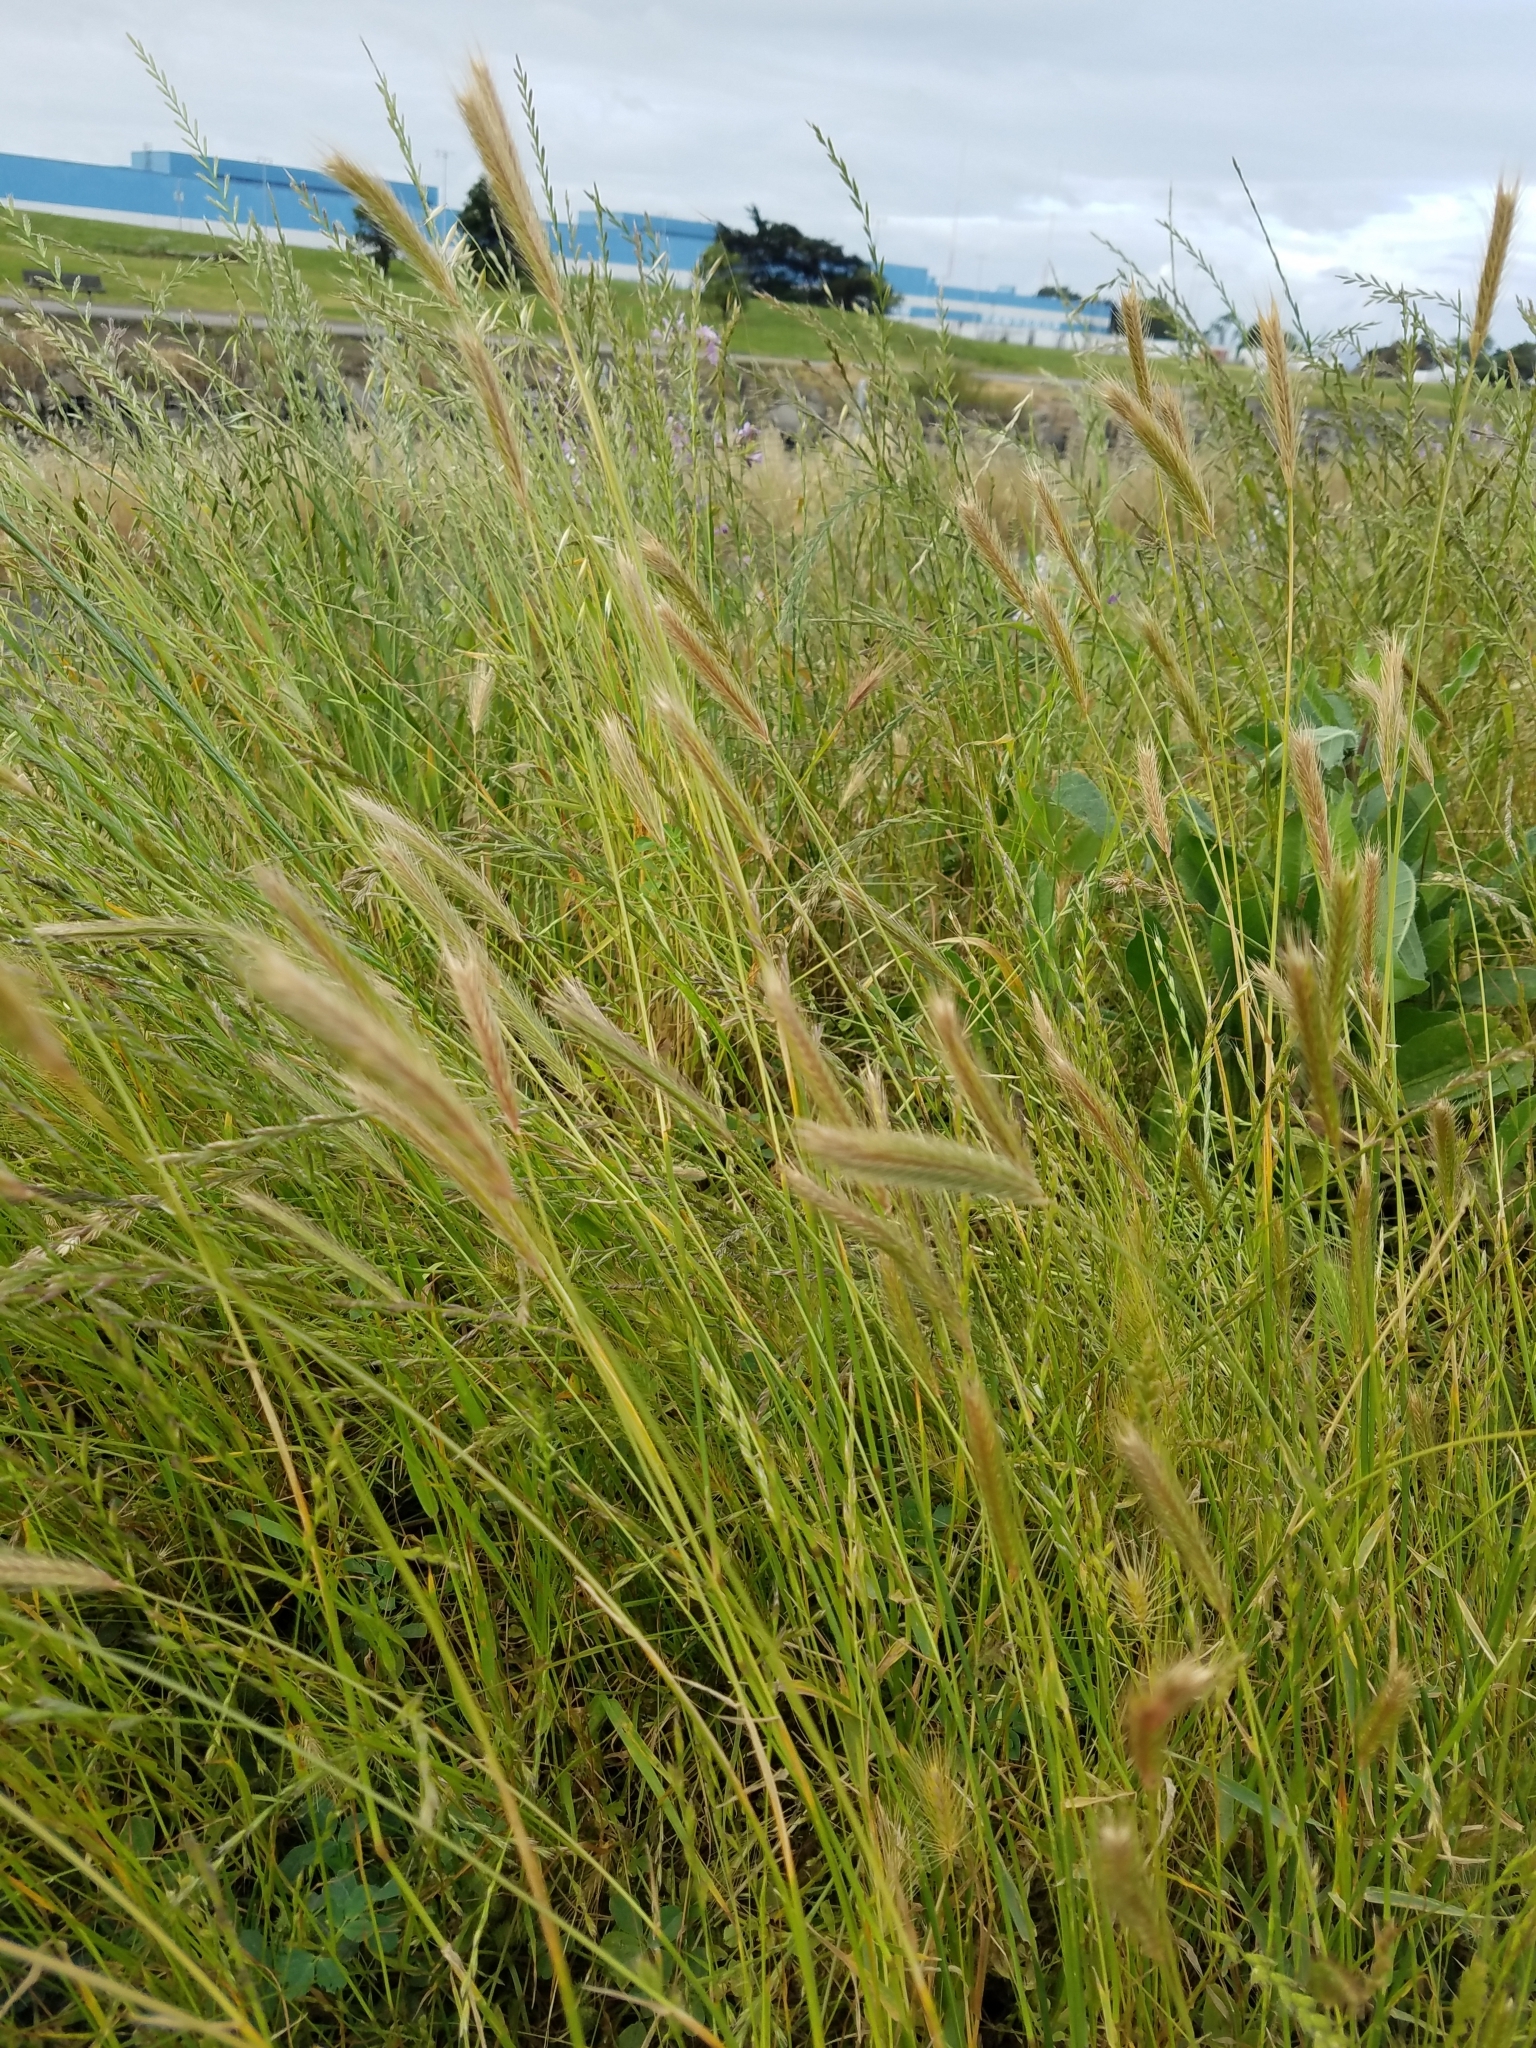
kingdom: Plantae
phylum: Tracheophyta
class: Liliopsida
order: Poales
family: Poaceae
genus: Hordeum
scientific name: Hordeum brachyantherum
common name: Meadow barley
